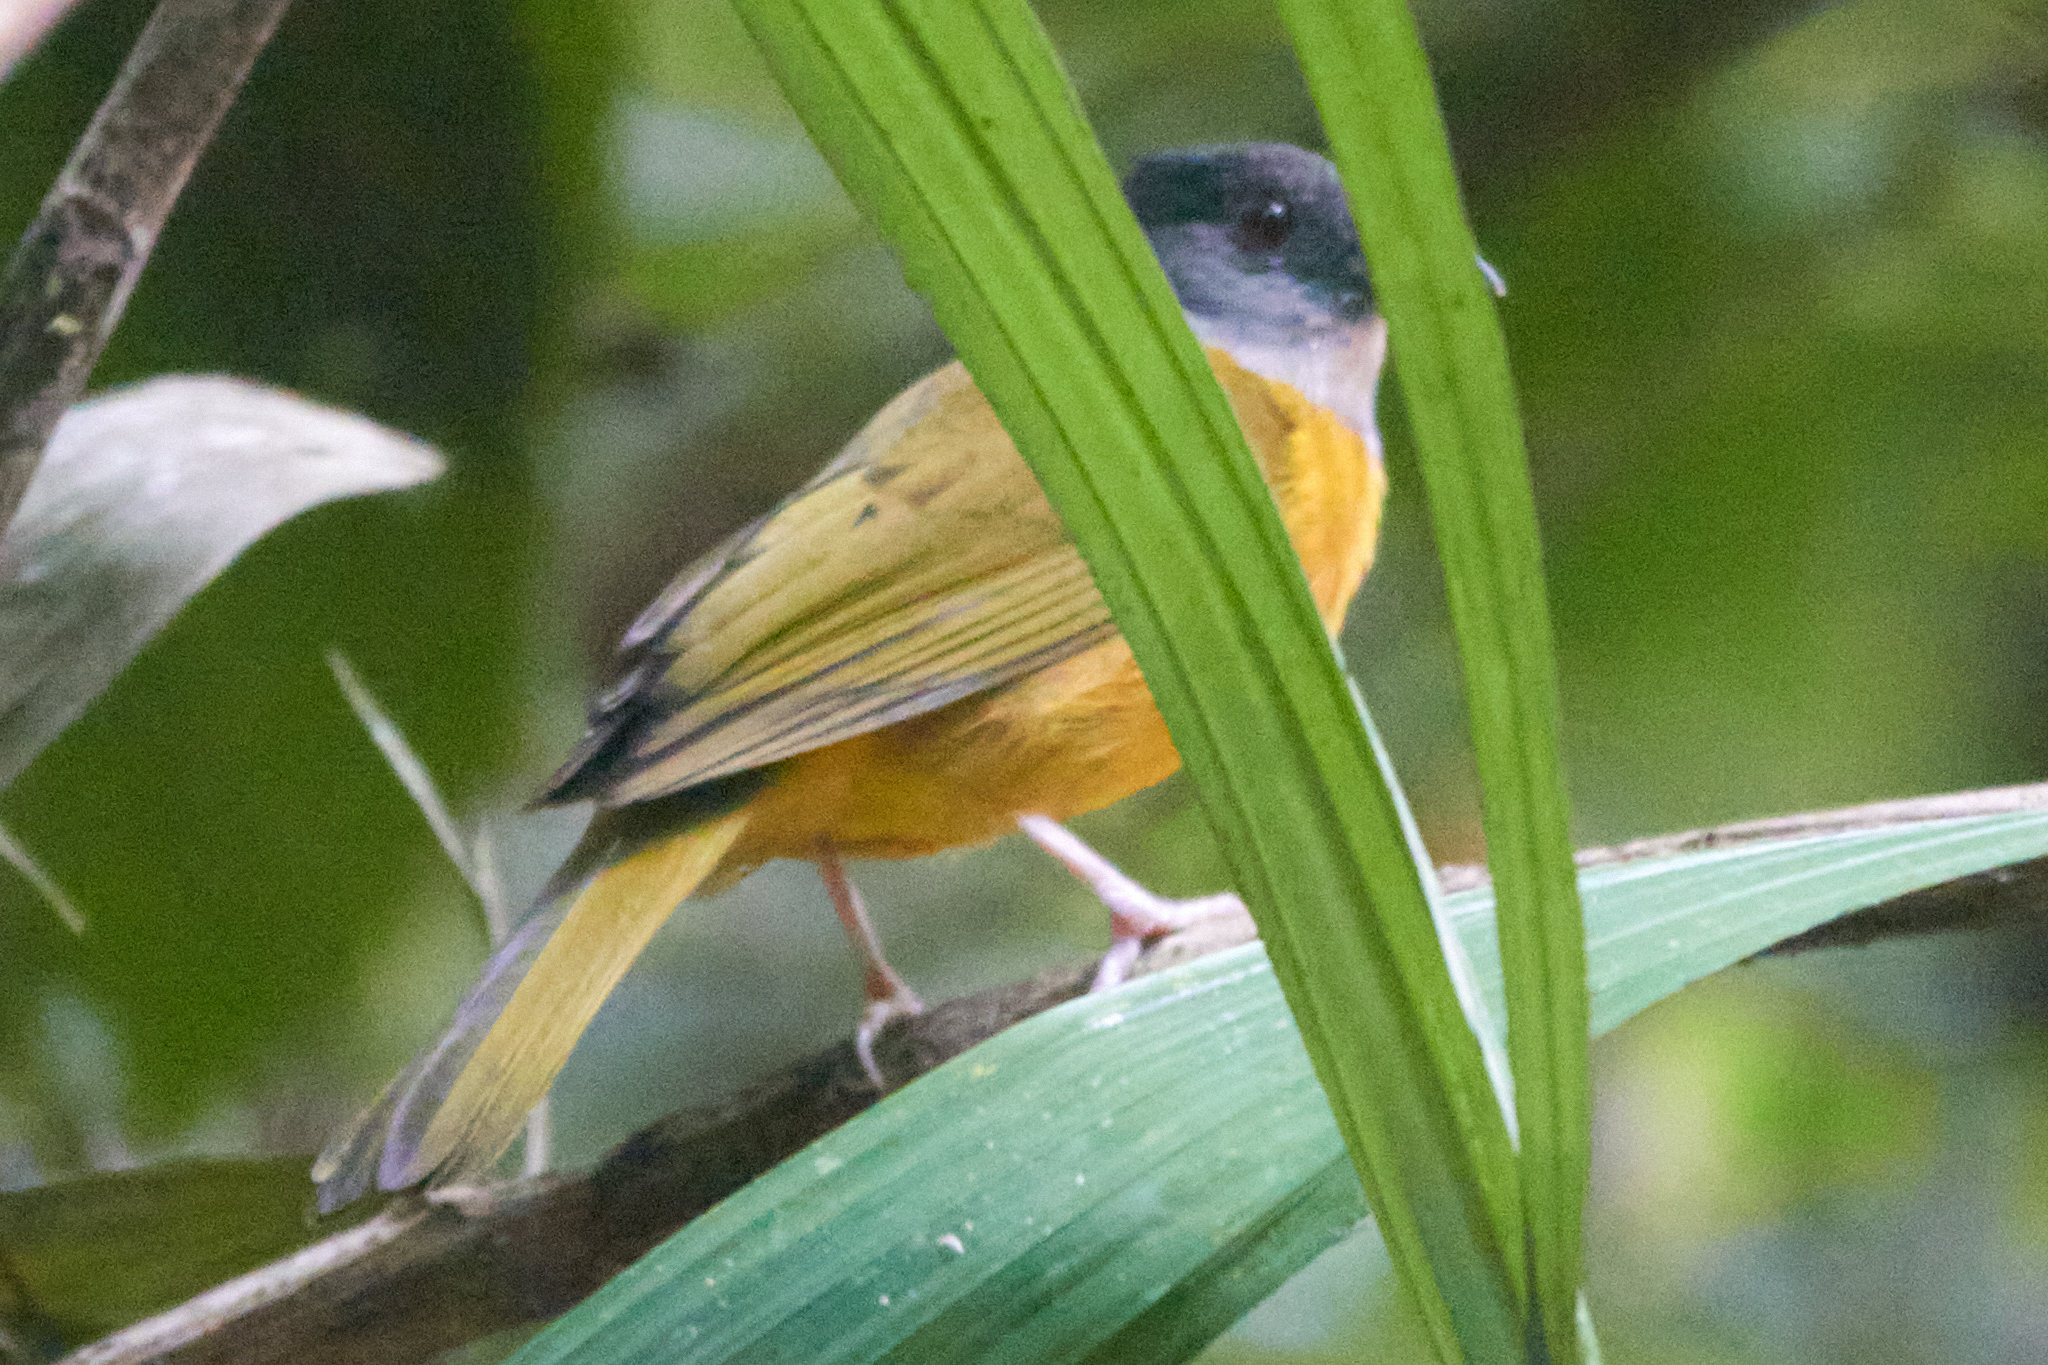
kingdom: Animalia
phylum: Chordata
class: Aves
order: Passeriformes
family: Thraupidae
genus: Eucometis
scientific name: Eucometis penicillata
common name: Grey-headed tanager
